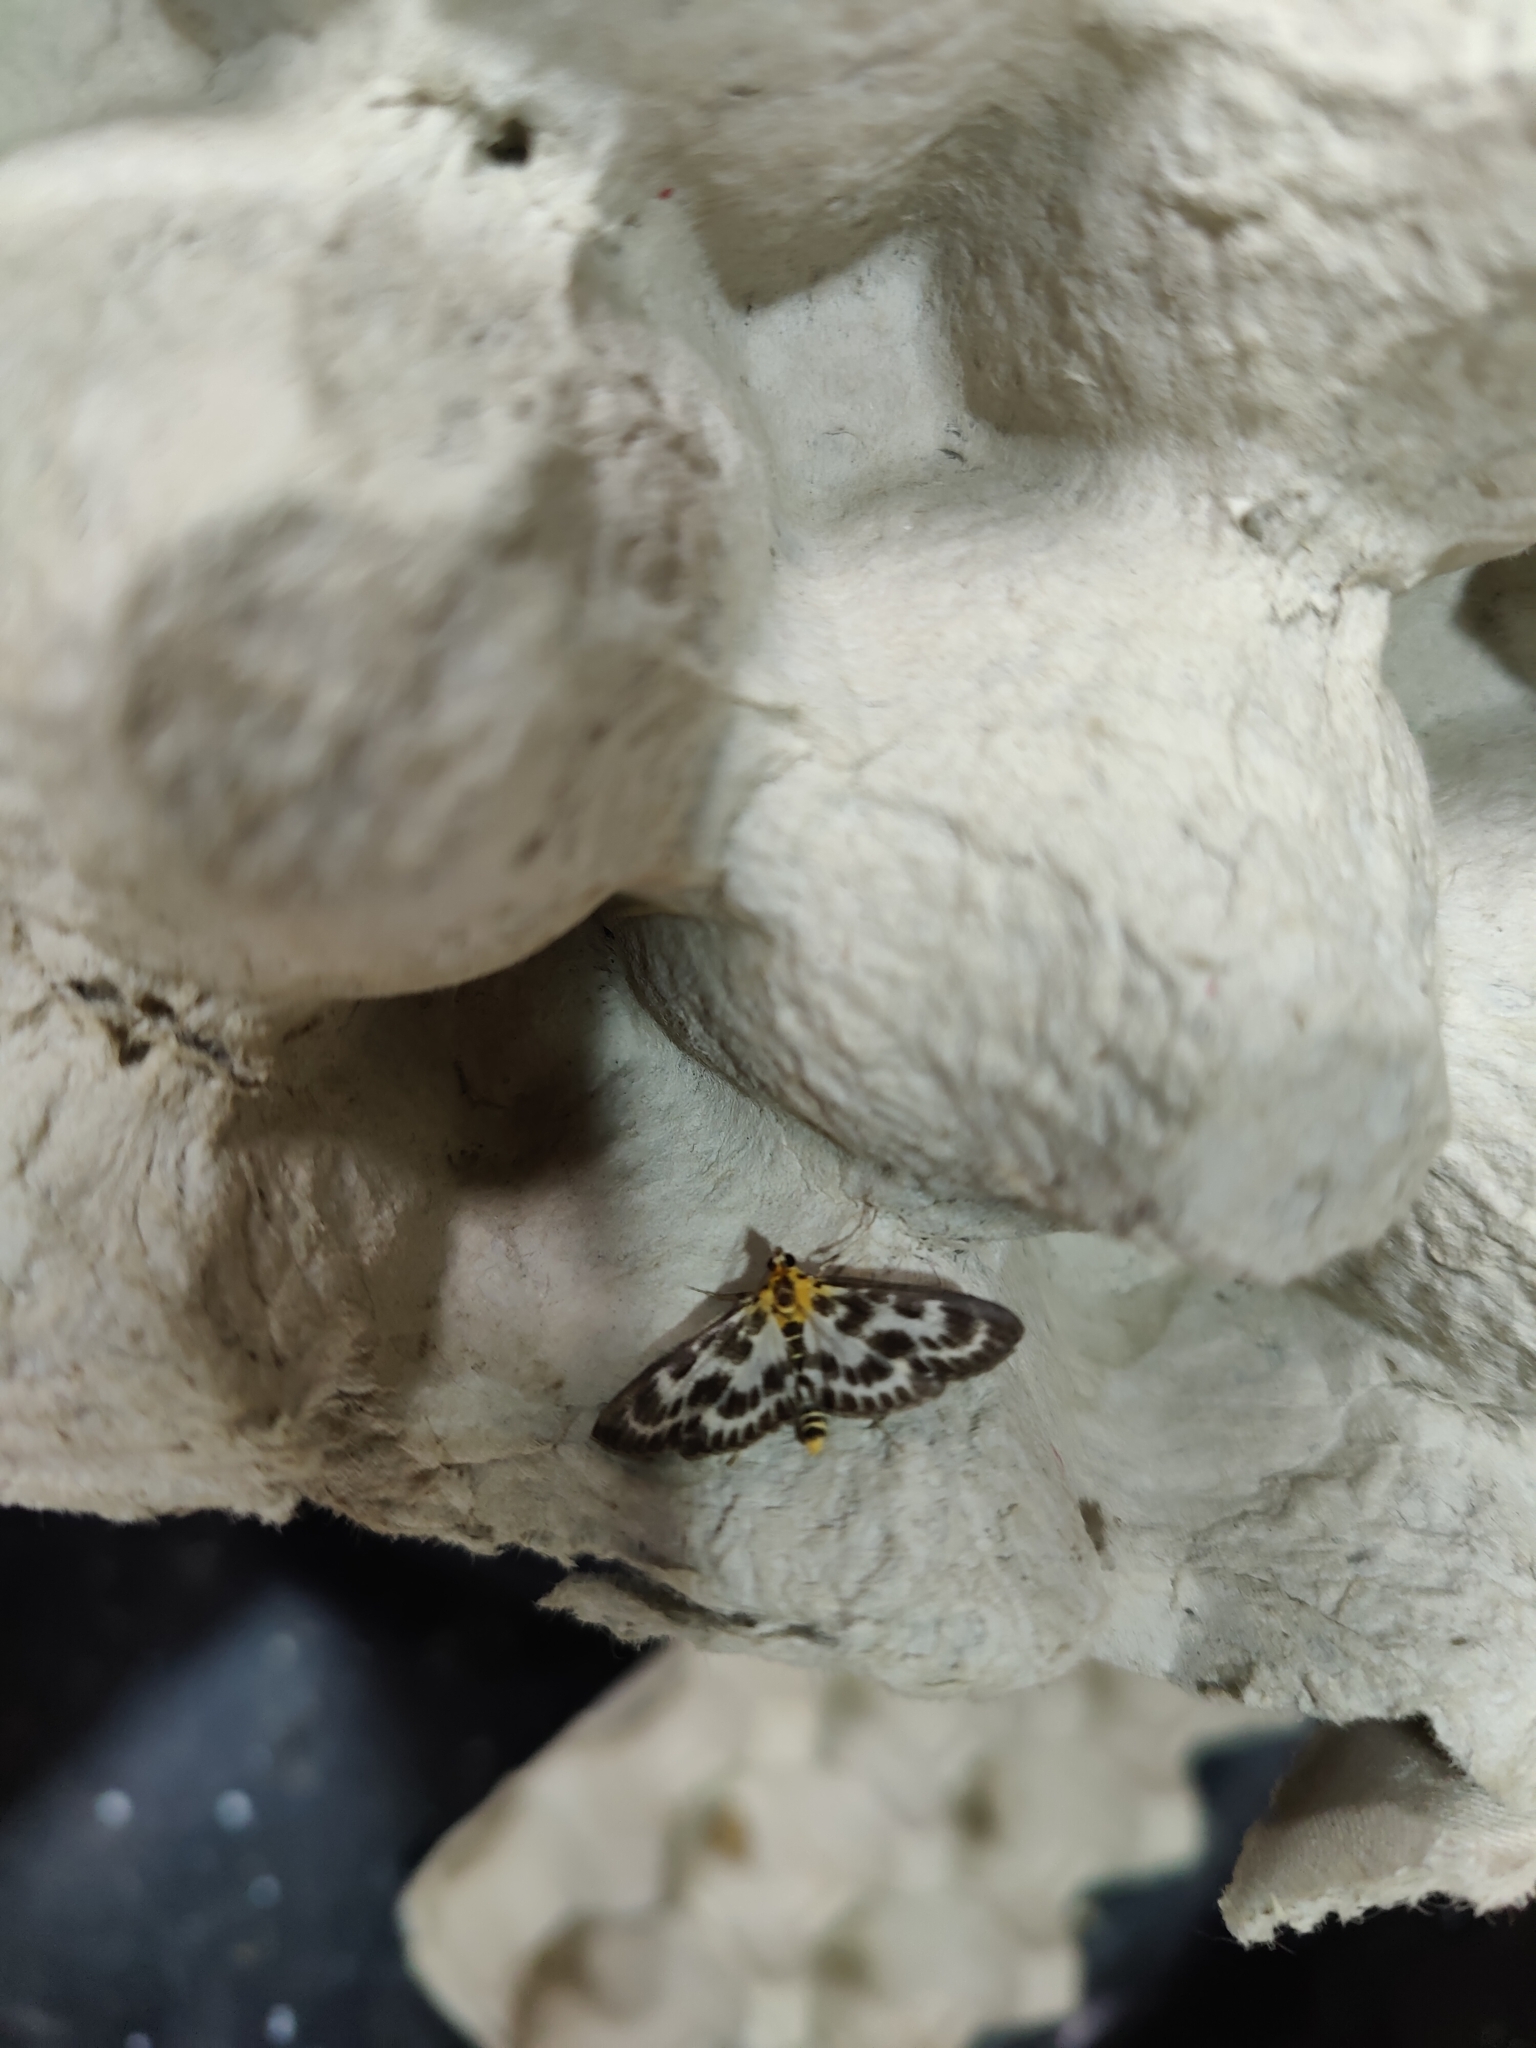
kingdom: Animalia
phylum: Arthropoda
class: Insecta
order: Lepidoptera
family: Crambidae
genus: Anania
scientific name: Anania hortulata
